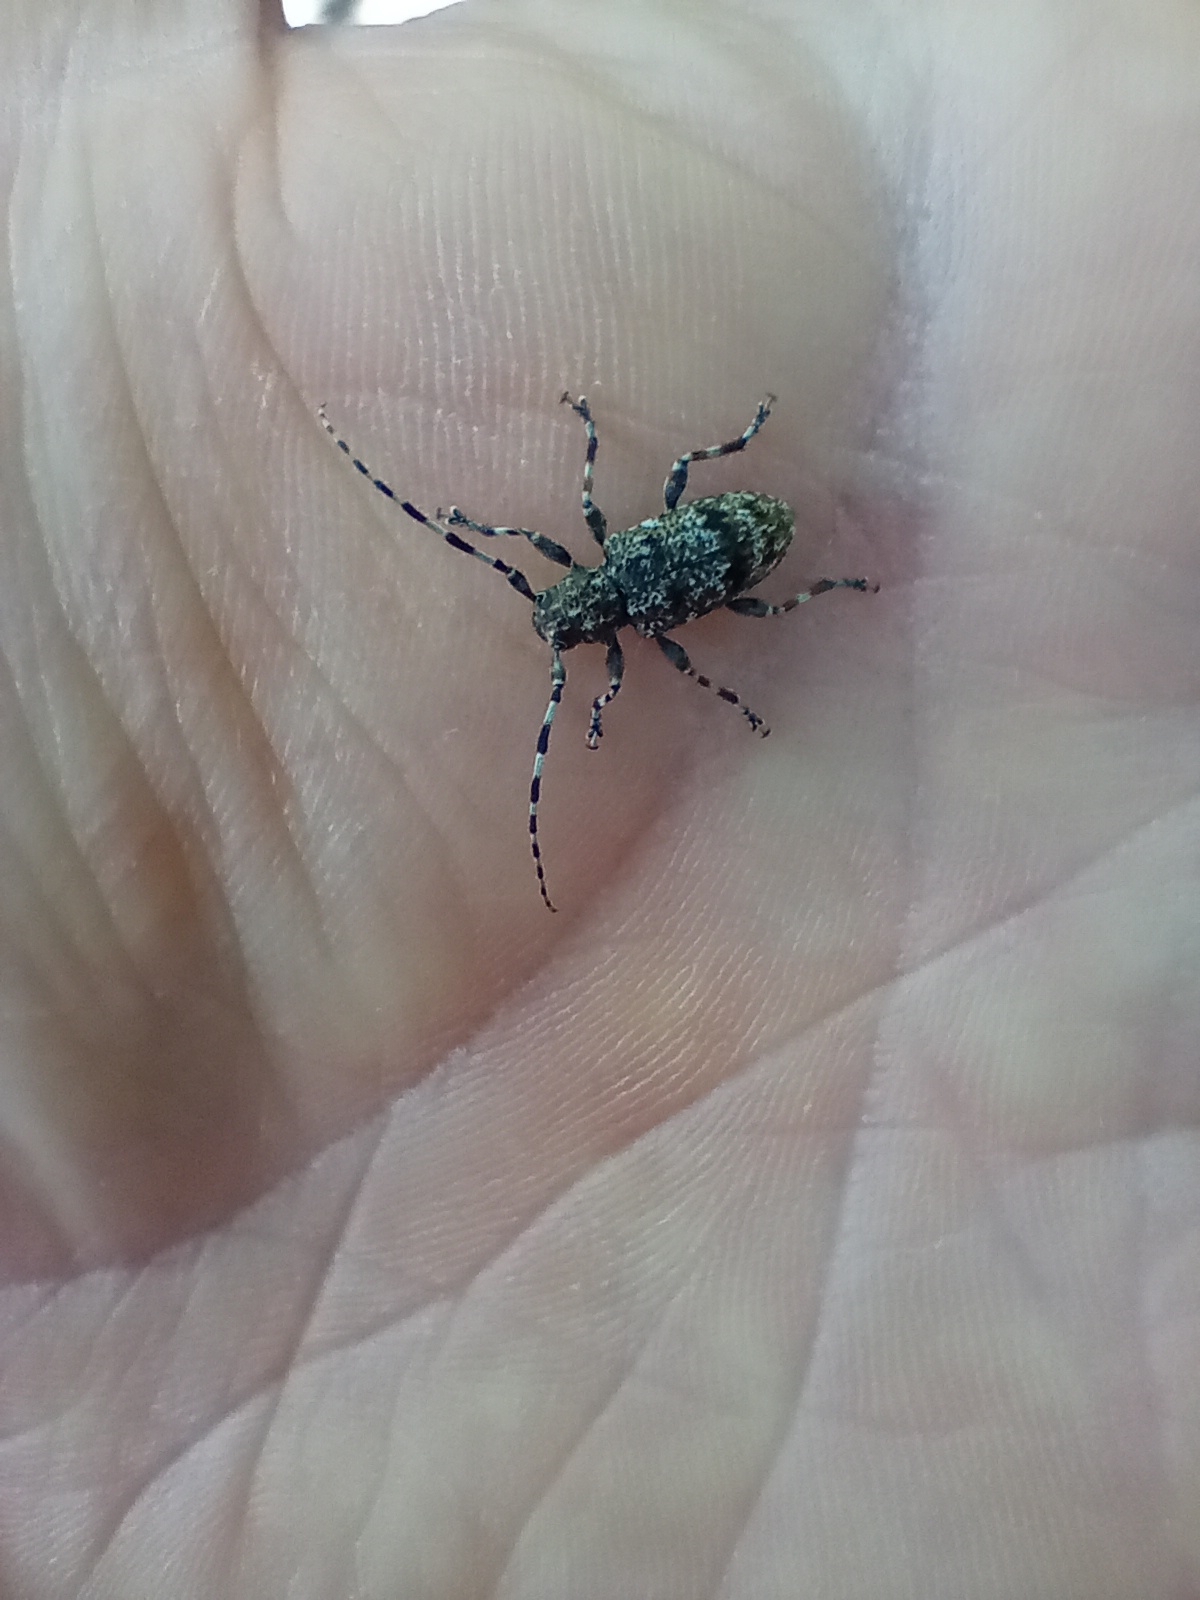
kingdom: Animalia
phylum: Arthropoda
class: Insecta
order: Coleoptera
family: Cerambycidae
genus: Aegomorphus
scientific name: Aegomorphus clavipes
